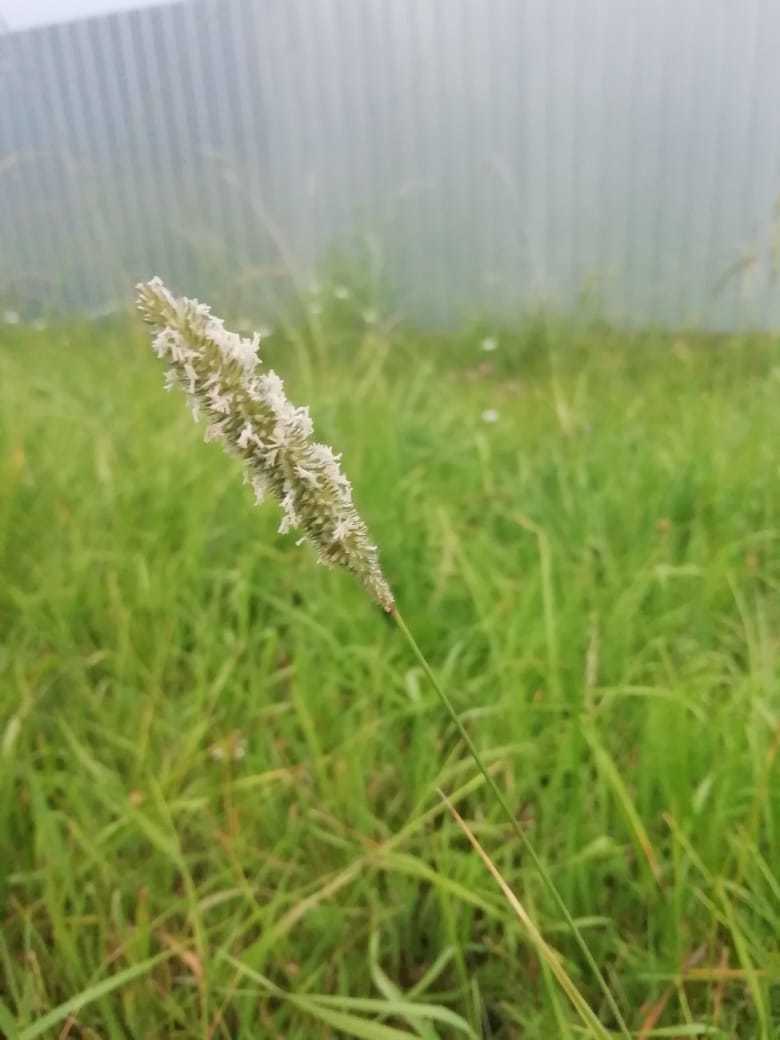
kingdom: Plantae
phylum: Tracheophyta
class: Liliopsida
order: Poales
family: Poaceae
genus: Phleum
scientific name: Phleum pratense
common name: Timothy grass
